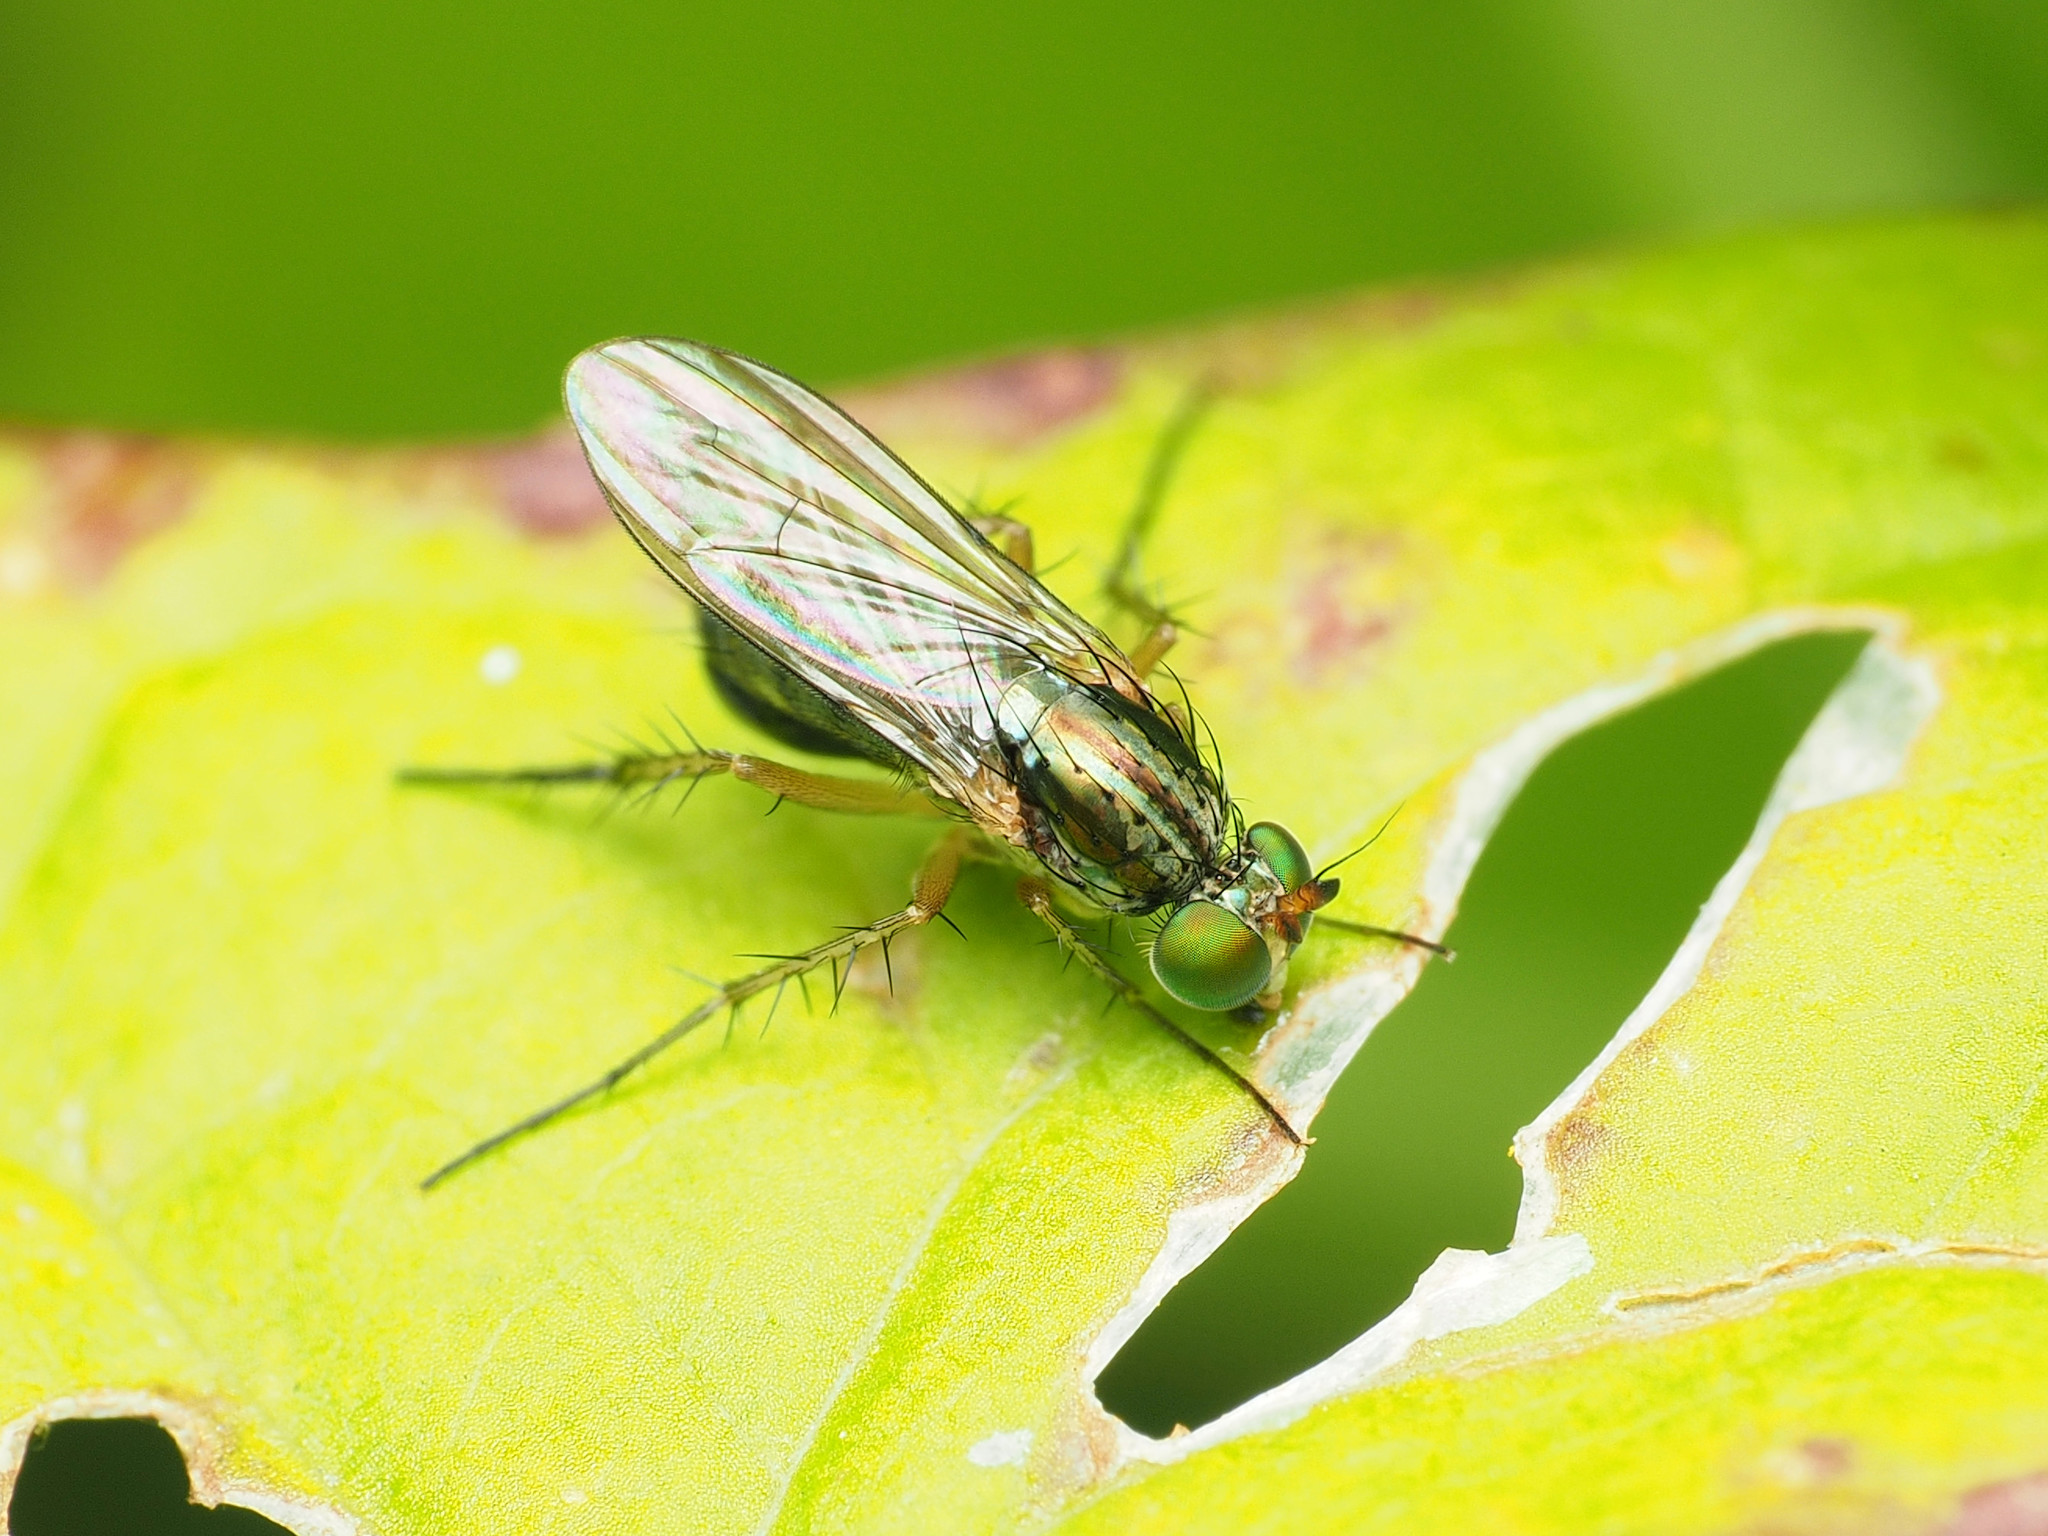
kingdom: Animalia
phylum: Arthropoda
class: Insecta
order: Diptera
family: Dolichopodidae
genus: Dolichopus
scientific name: Dolichopus reflectus
